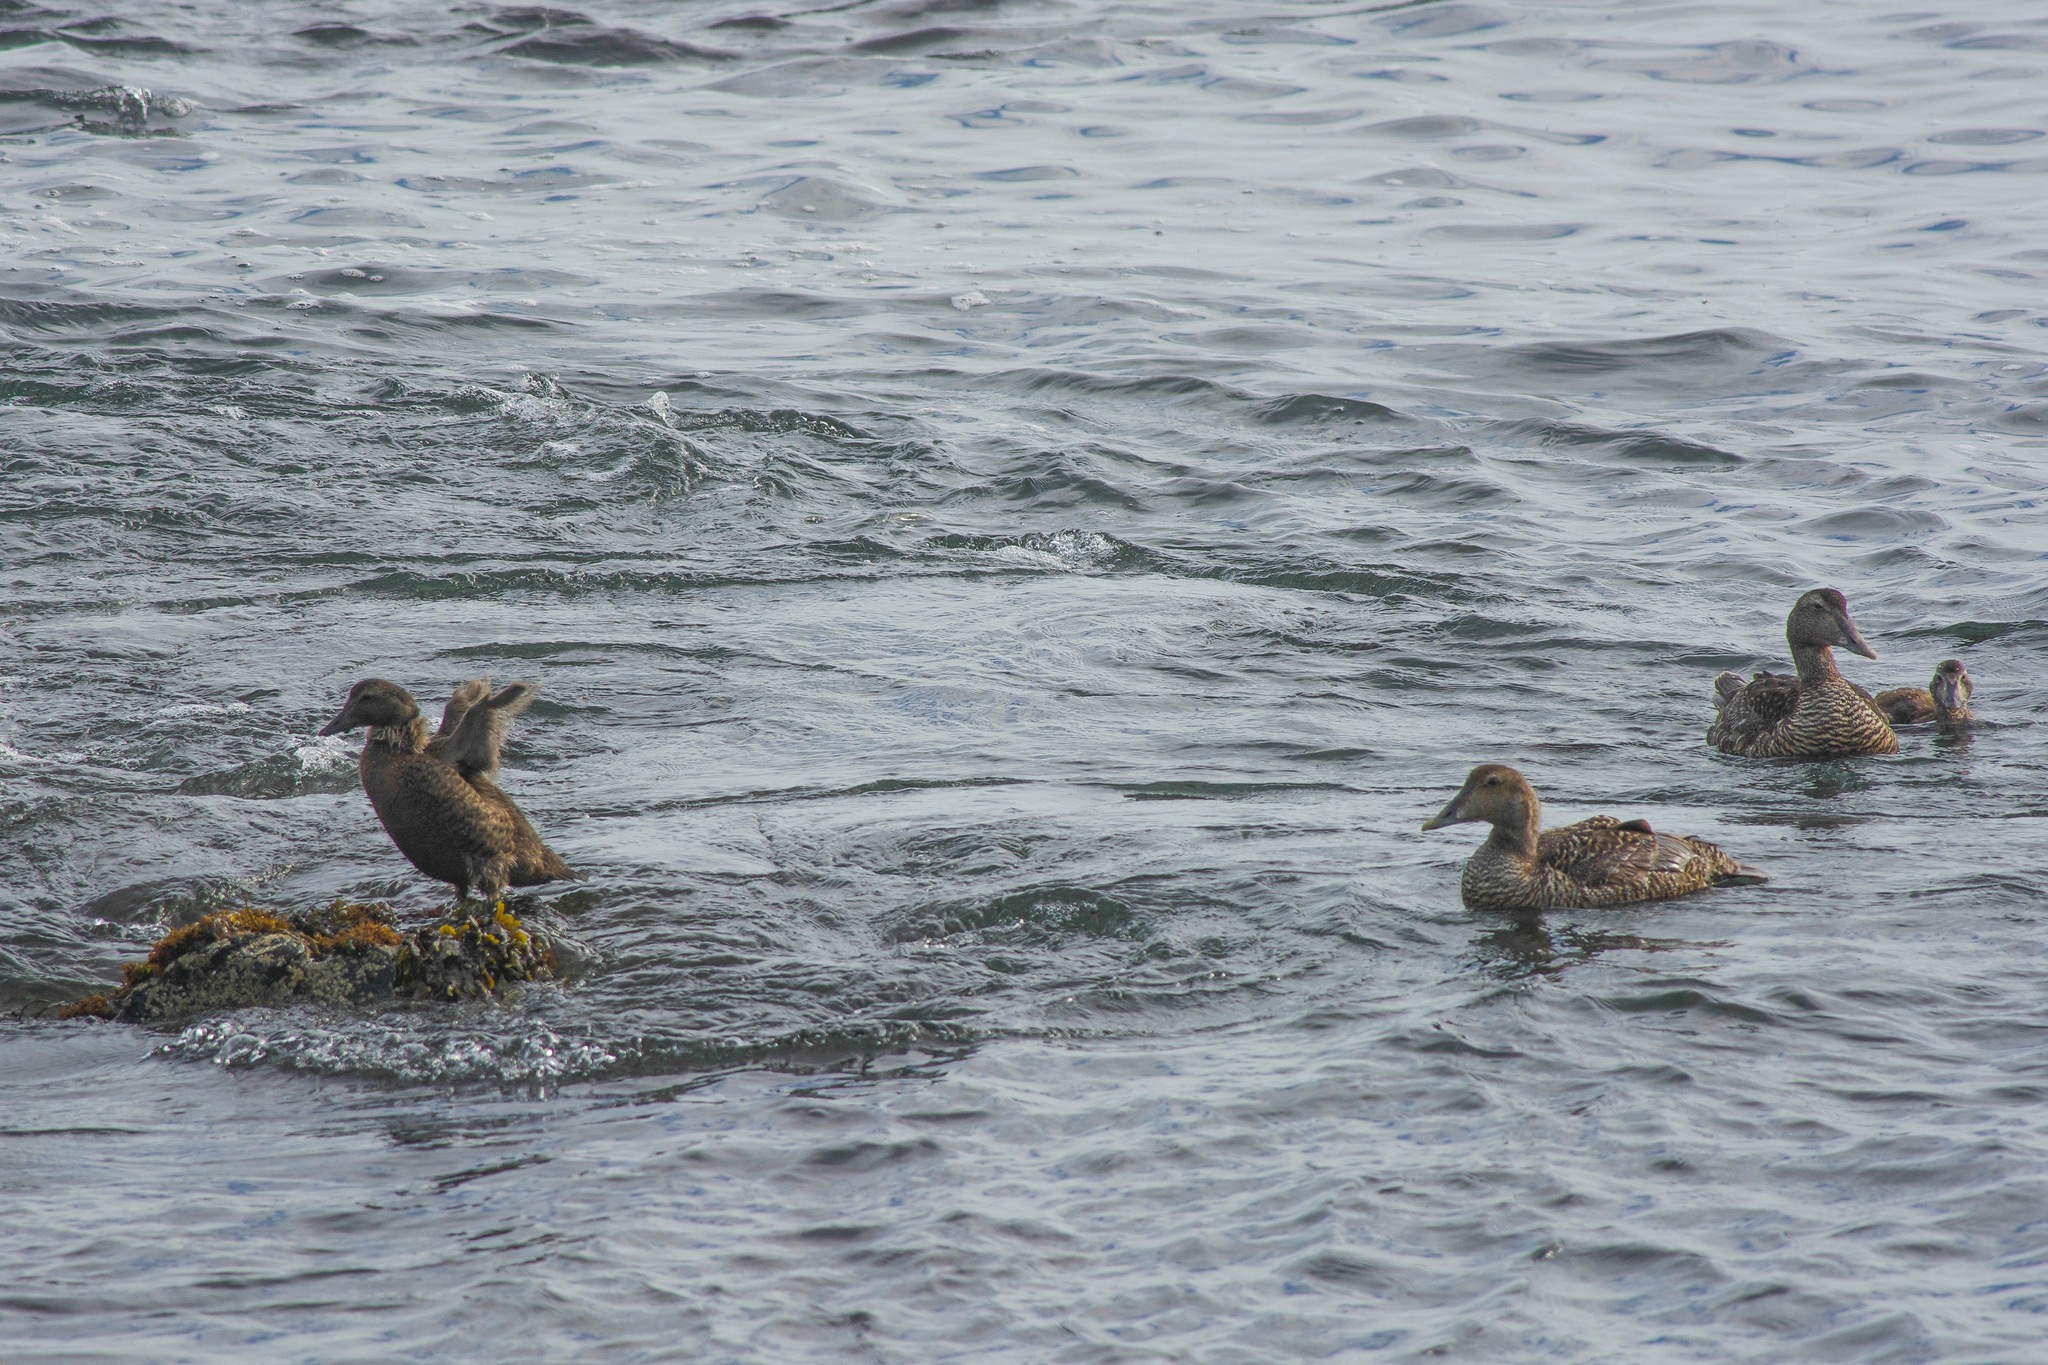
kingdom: Animalia
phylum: Chordata
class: Aves
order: Anseriformes
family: Anatidae
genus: Somateria
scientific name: Somateria mollissima
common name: Common eider
